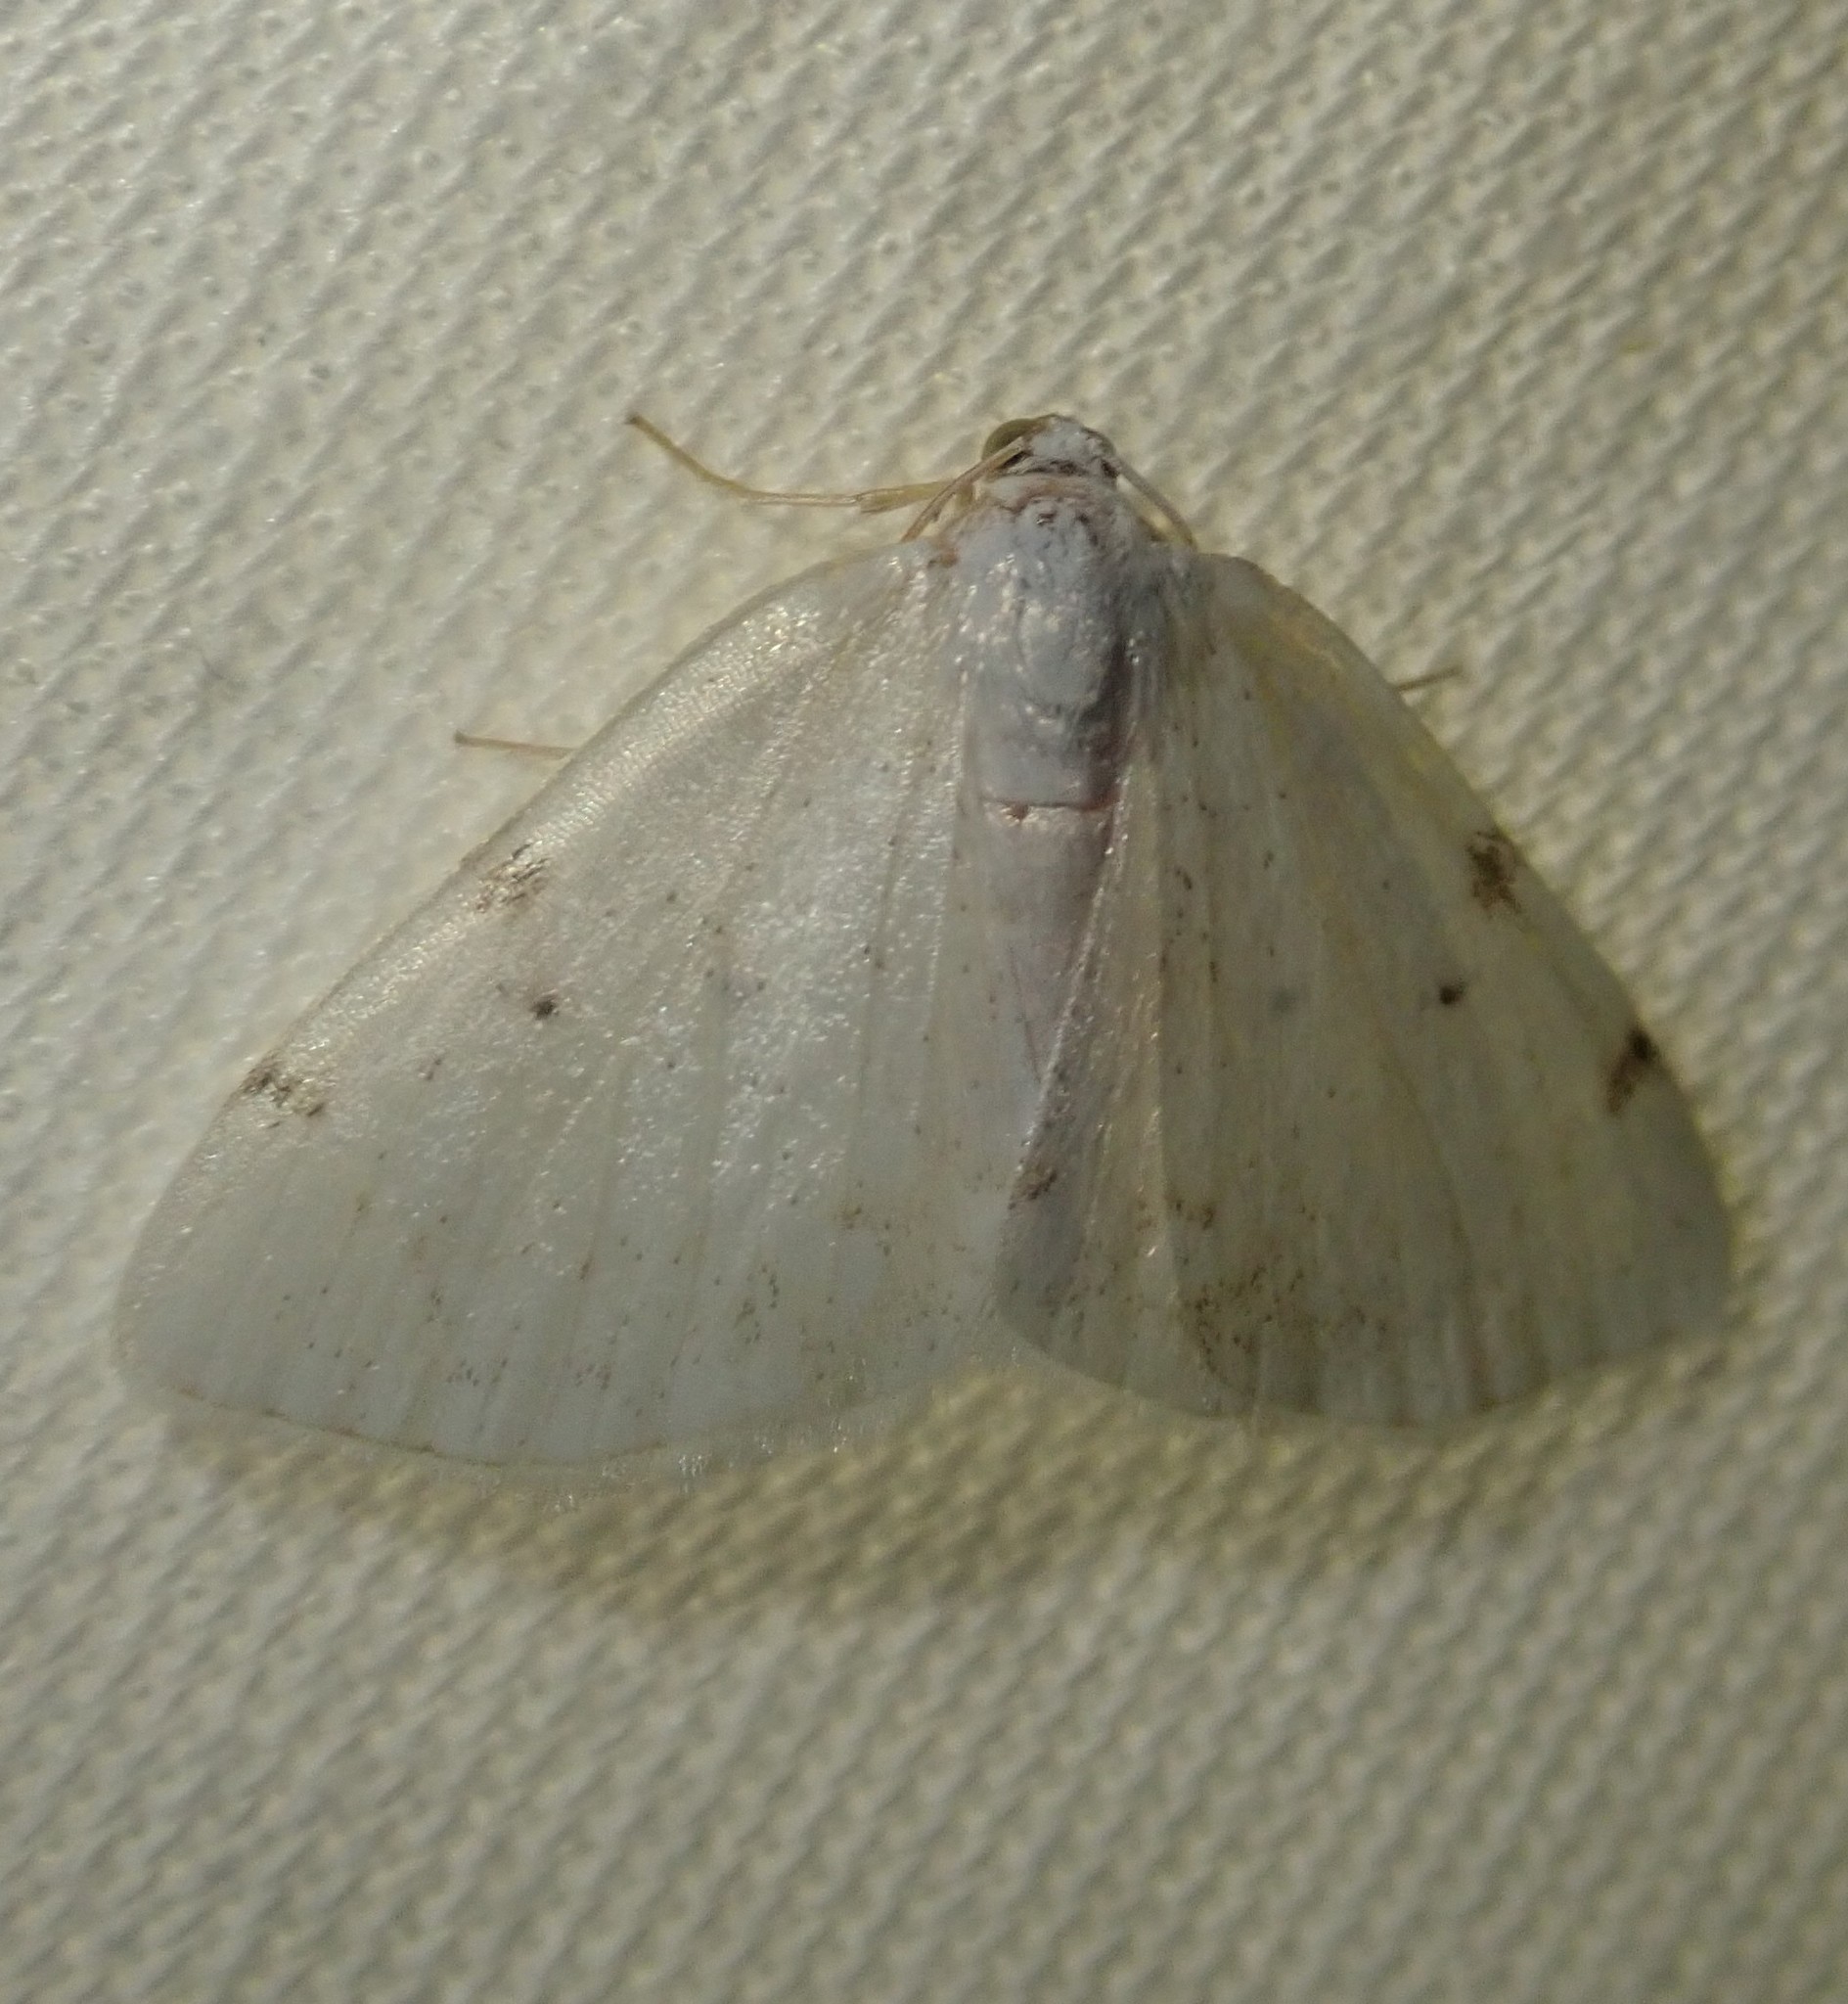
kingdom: Animalia
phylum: Arthropoda
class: Insecta
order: Lepidoptera
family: Geometridae
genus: Lomographa
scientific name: Lomographa bimaculata
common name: White-pinion spotted
